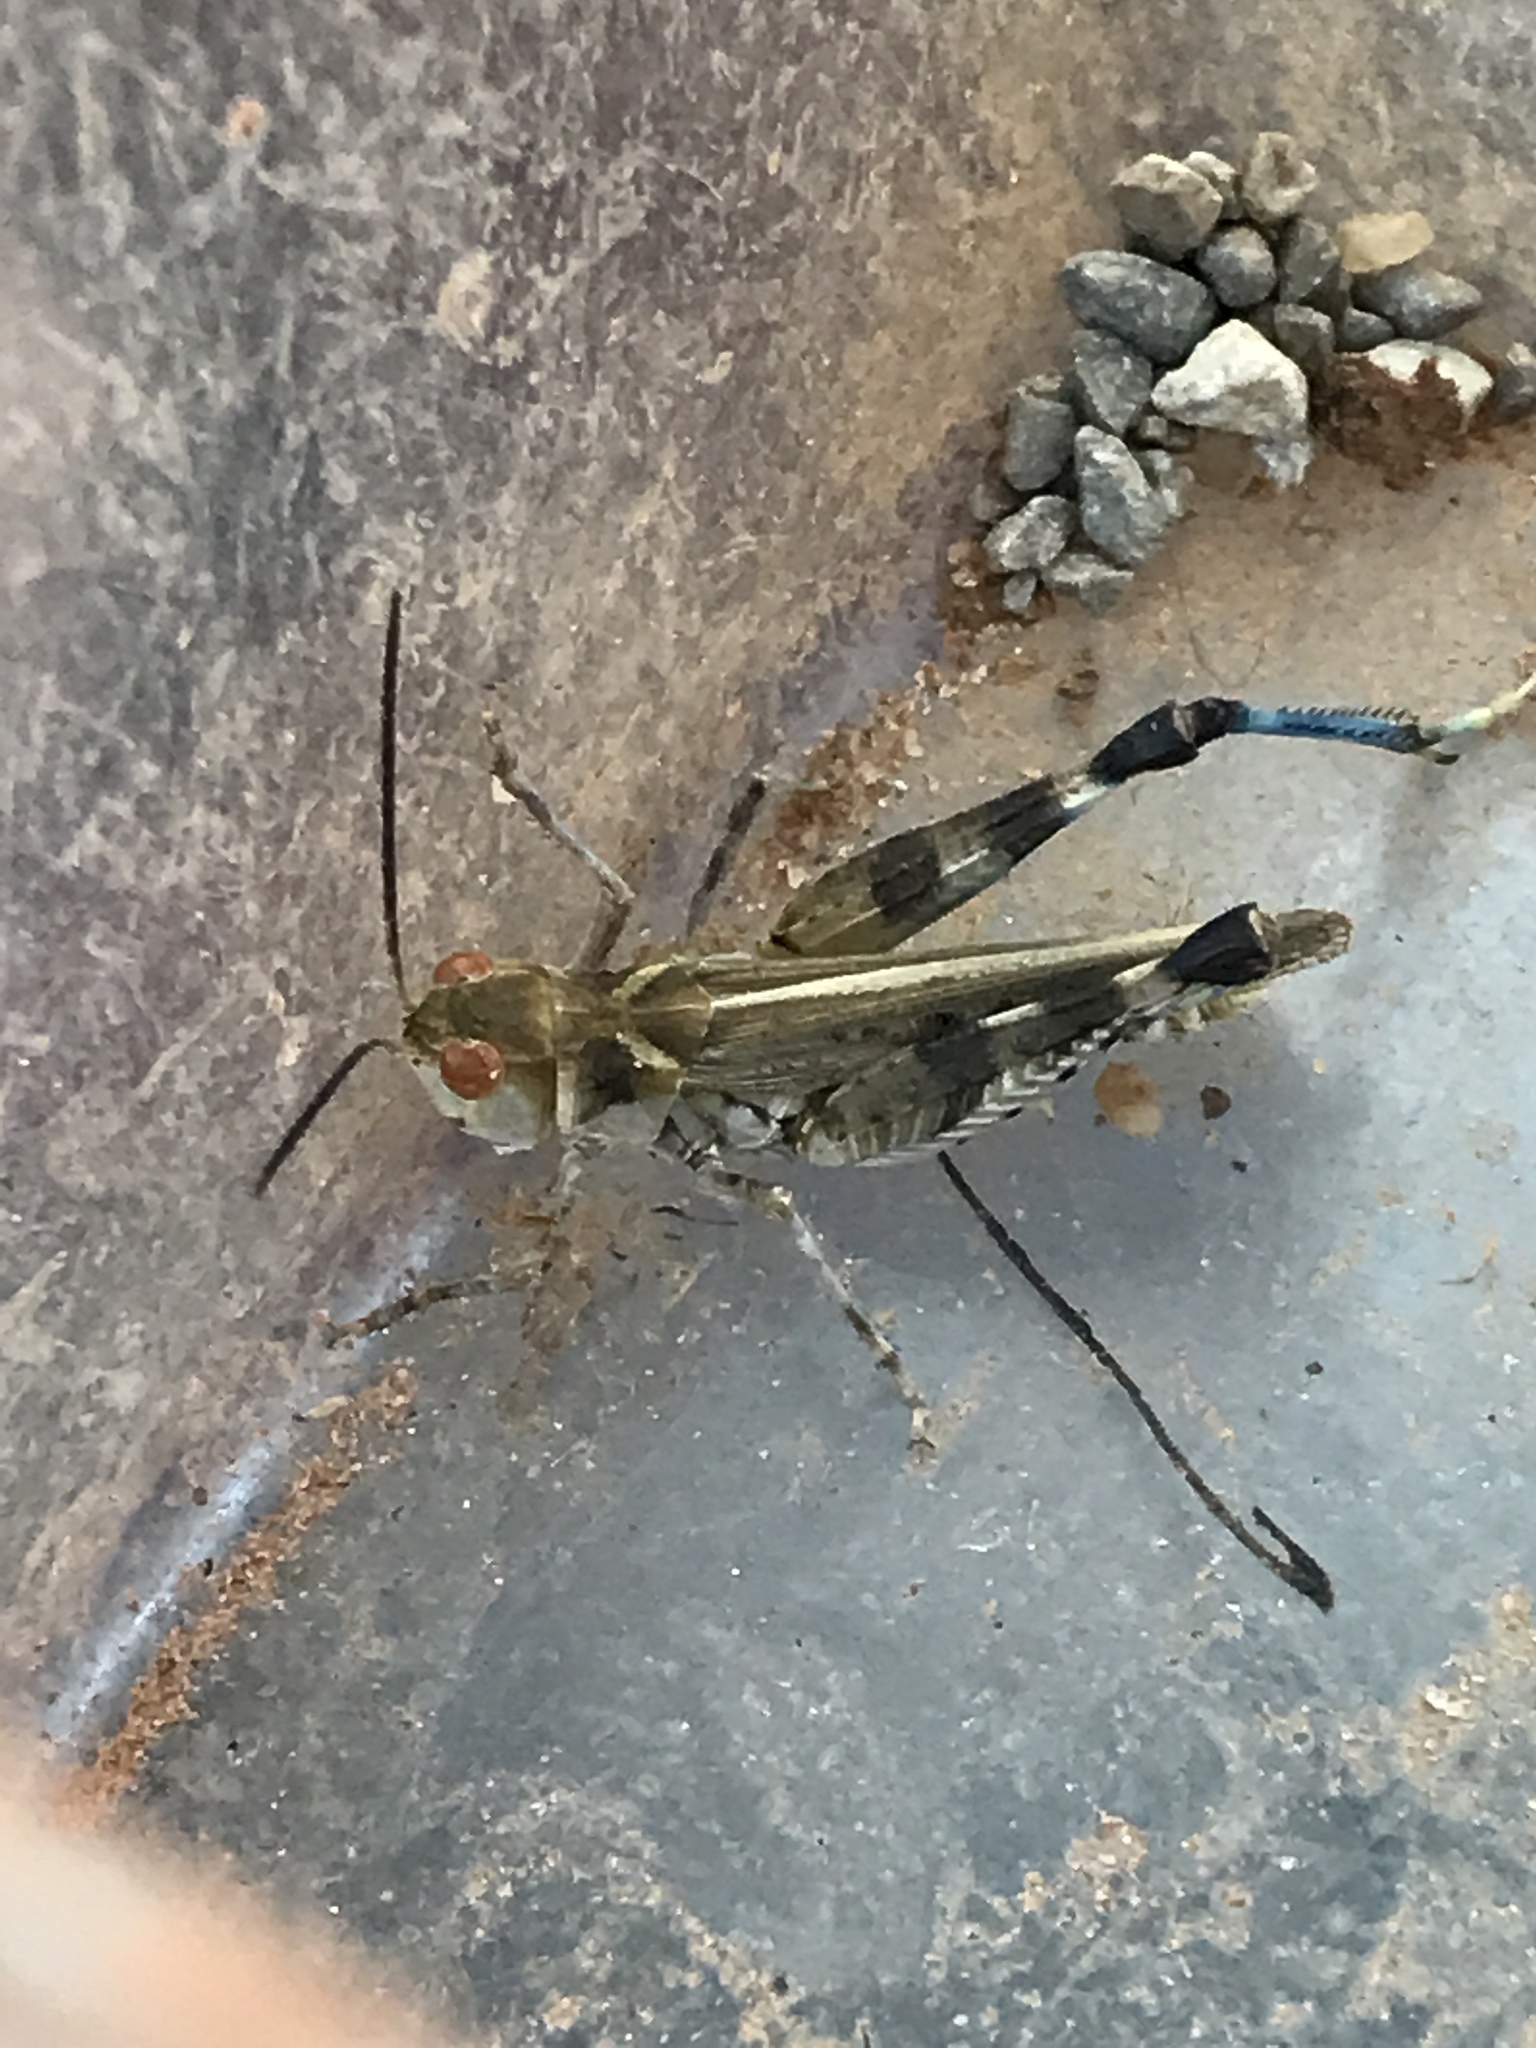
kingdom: Animalia
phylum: Arthropoda
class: Insecta
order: Orthoptera
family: Acrididae
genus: Aulocara
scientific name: Aulocara elliotti
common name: Bigheaded grasshopper
